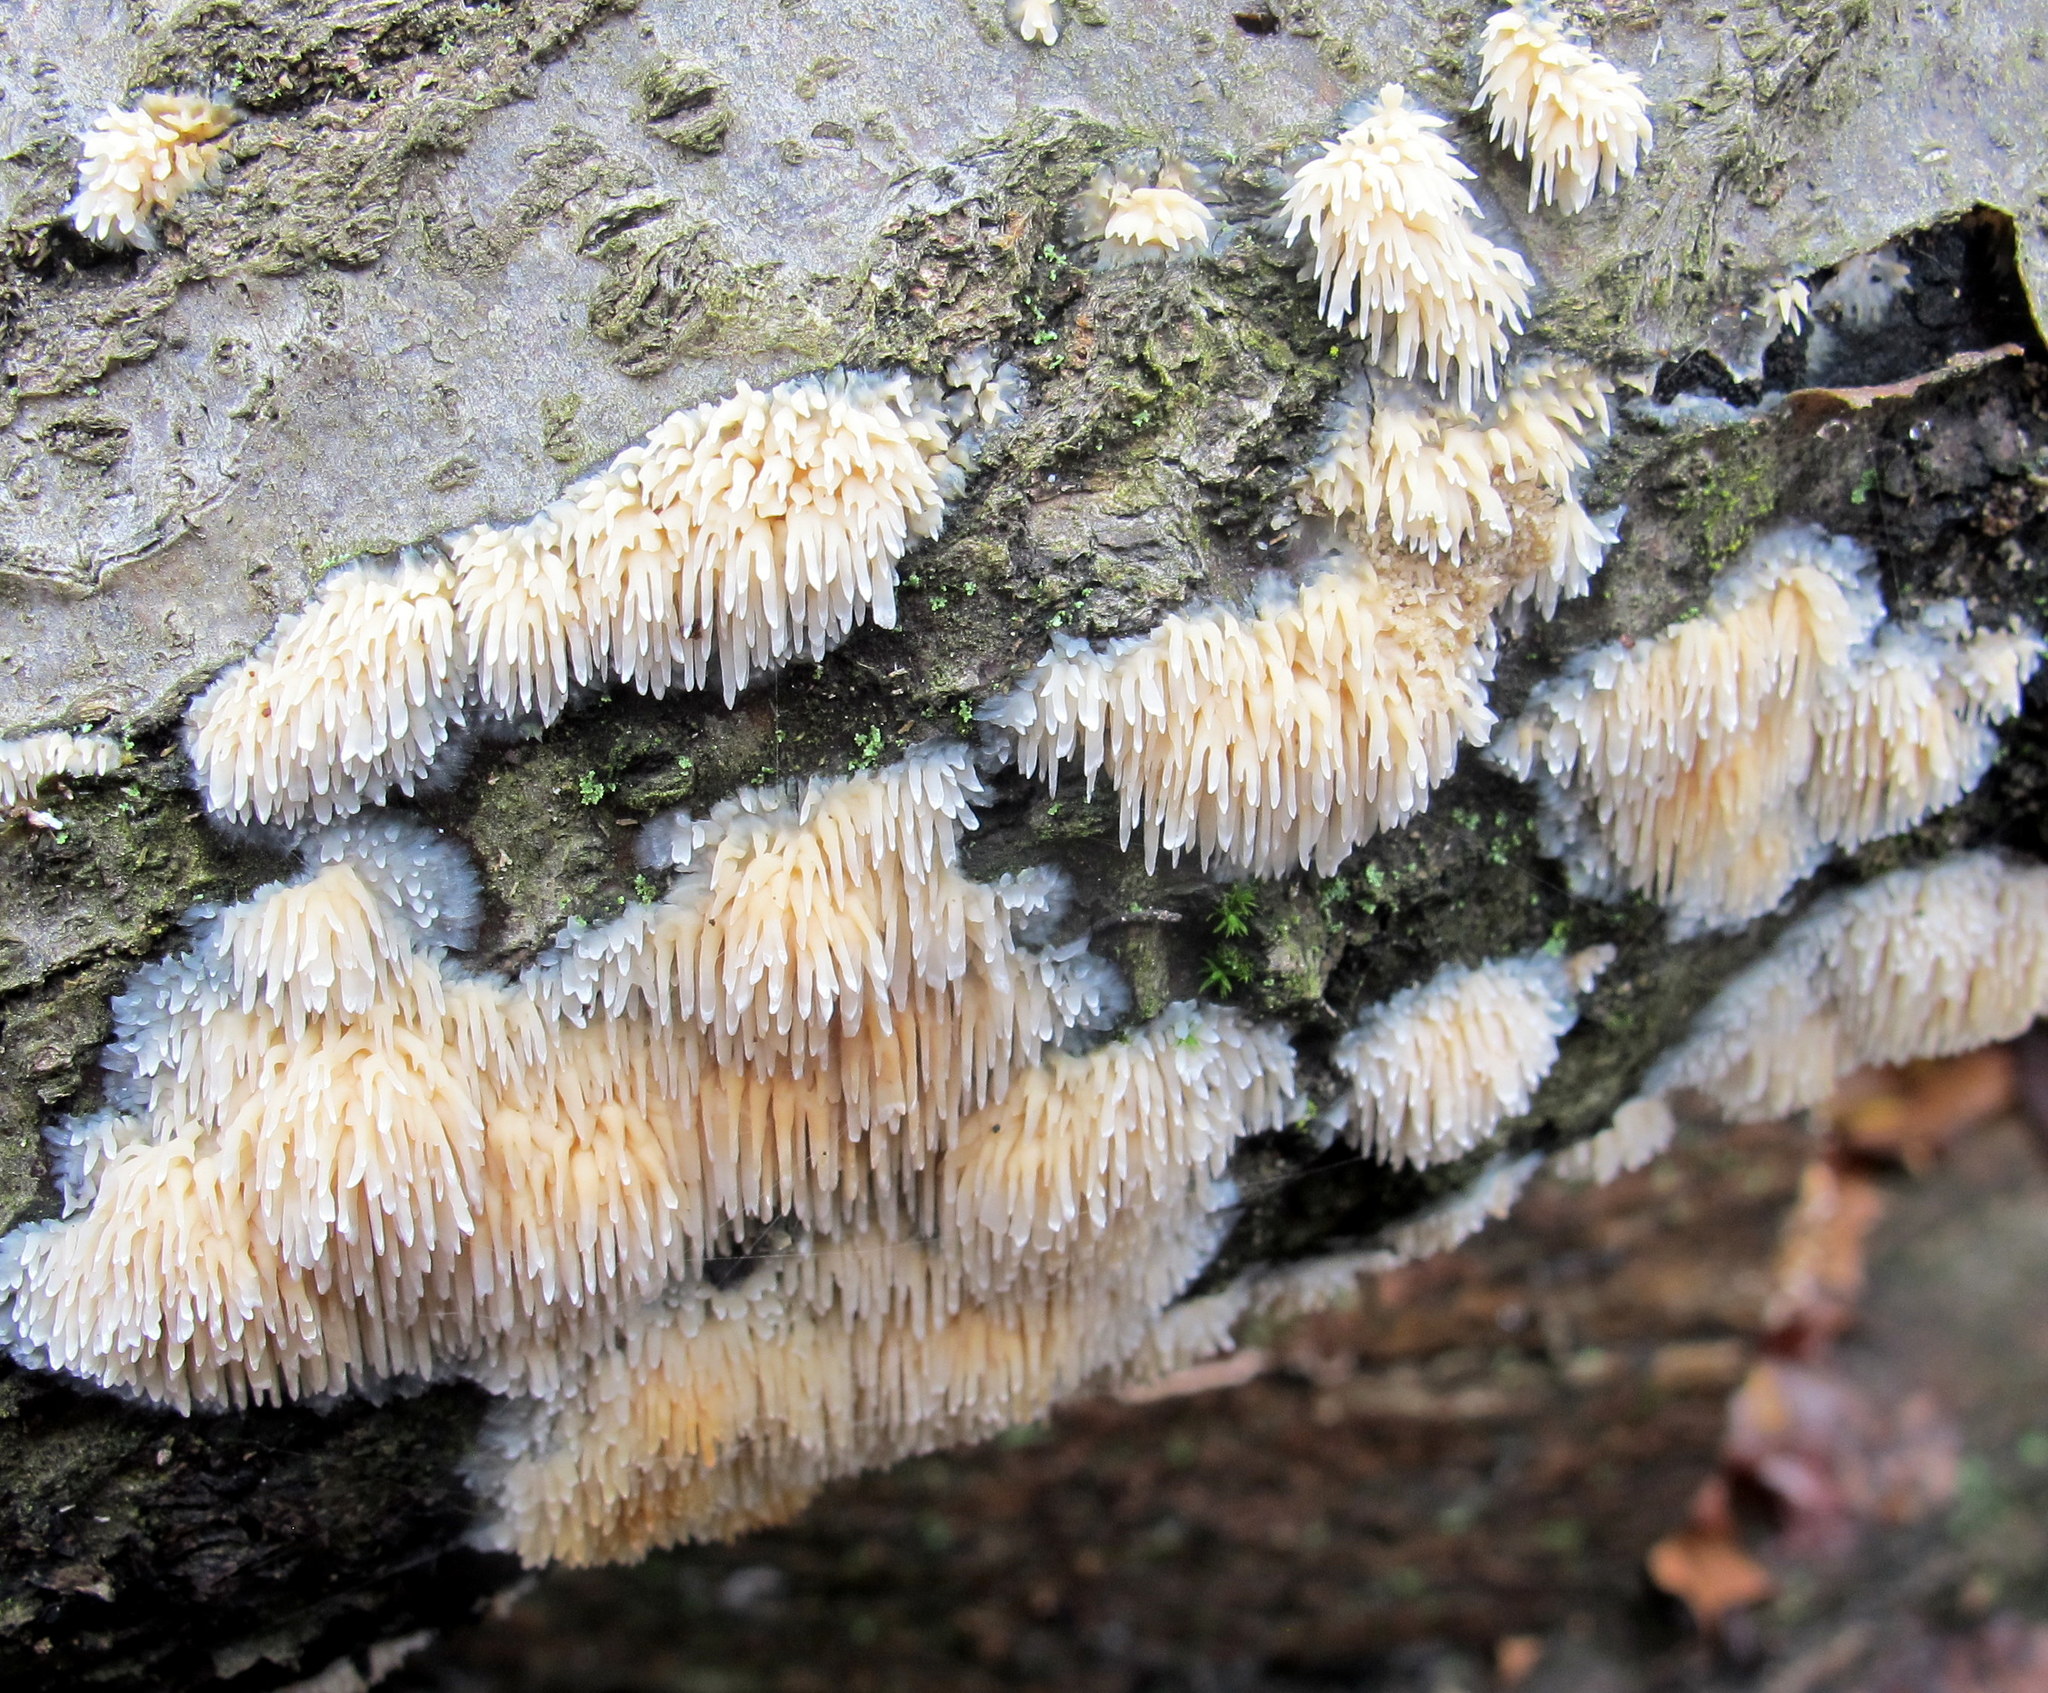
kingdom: Fungi
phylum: Basidiomycota
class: Agaricomycetes
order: Agaricales
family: Radulomycetaceae
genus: Radulomyces
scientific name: Radulomyces copelandii
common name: Asian beauty
